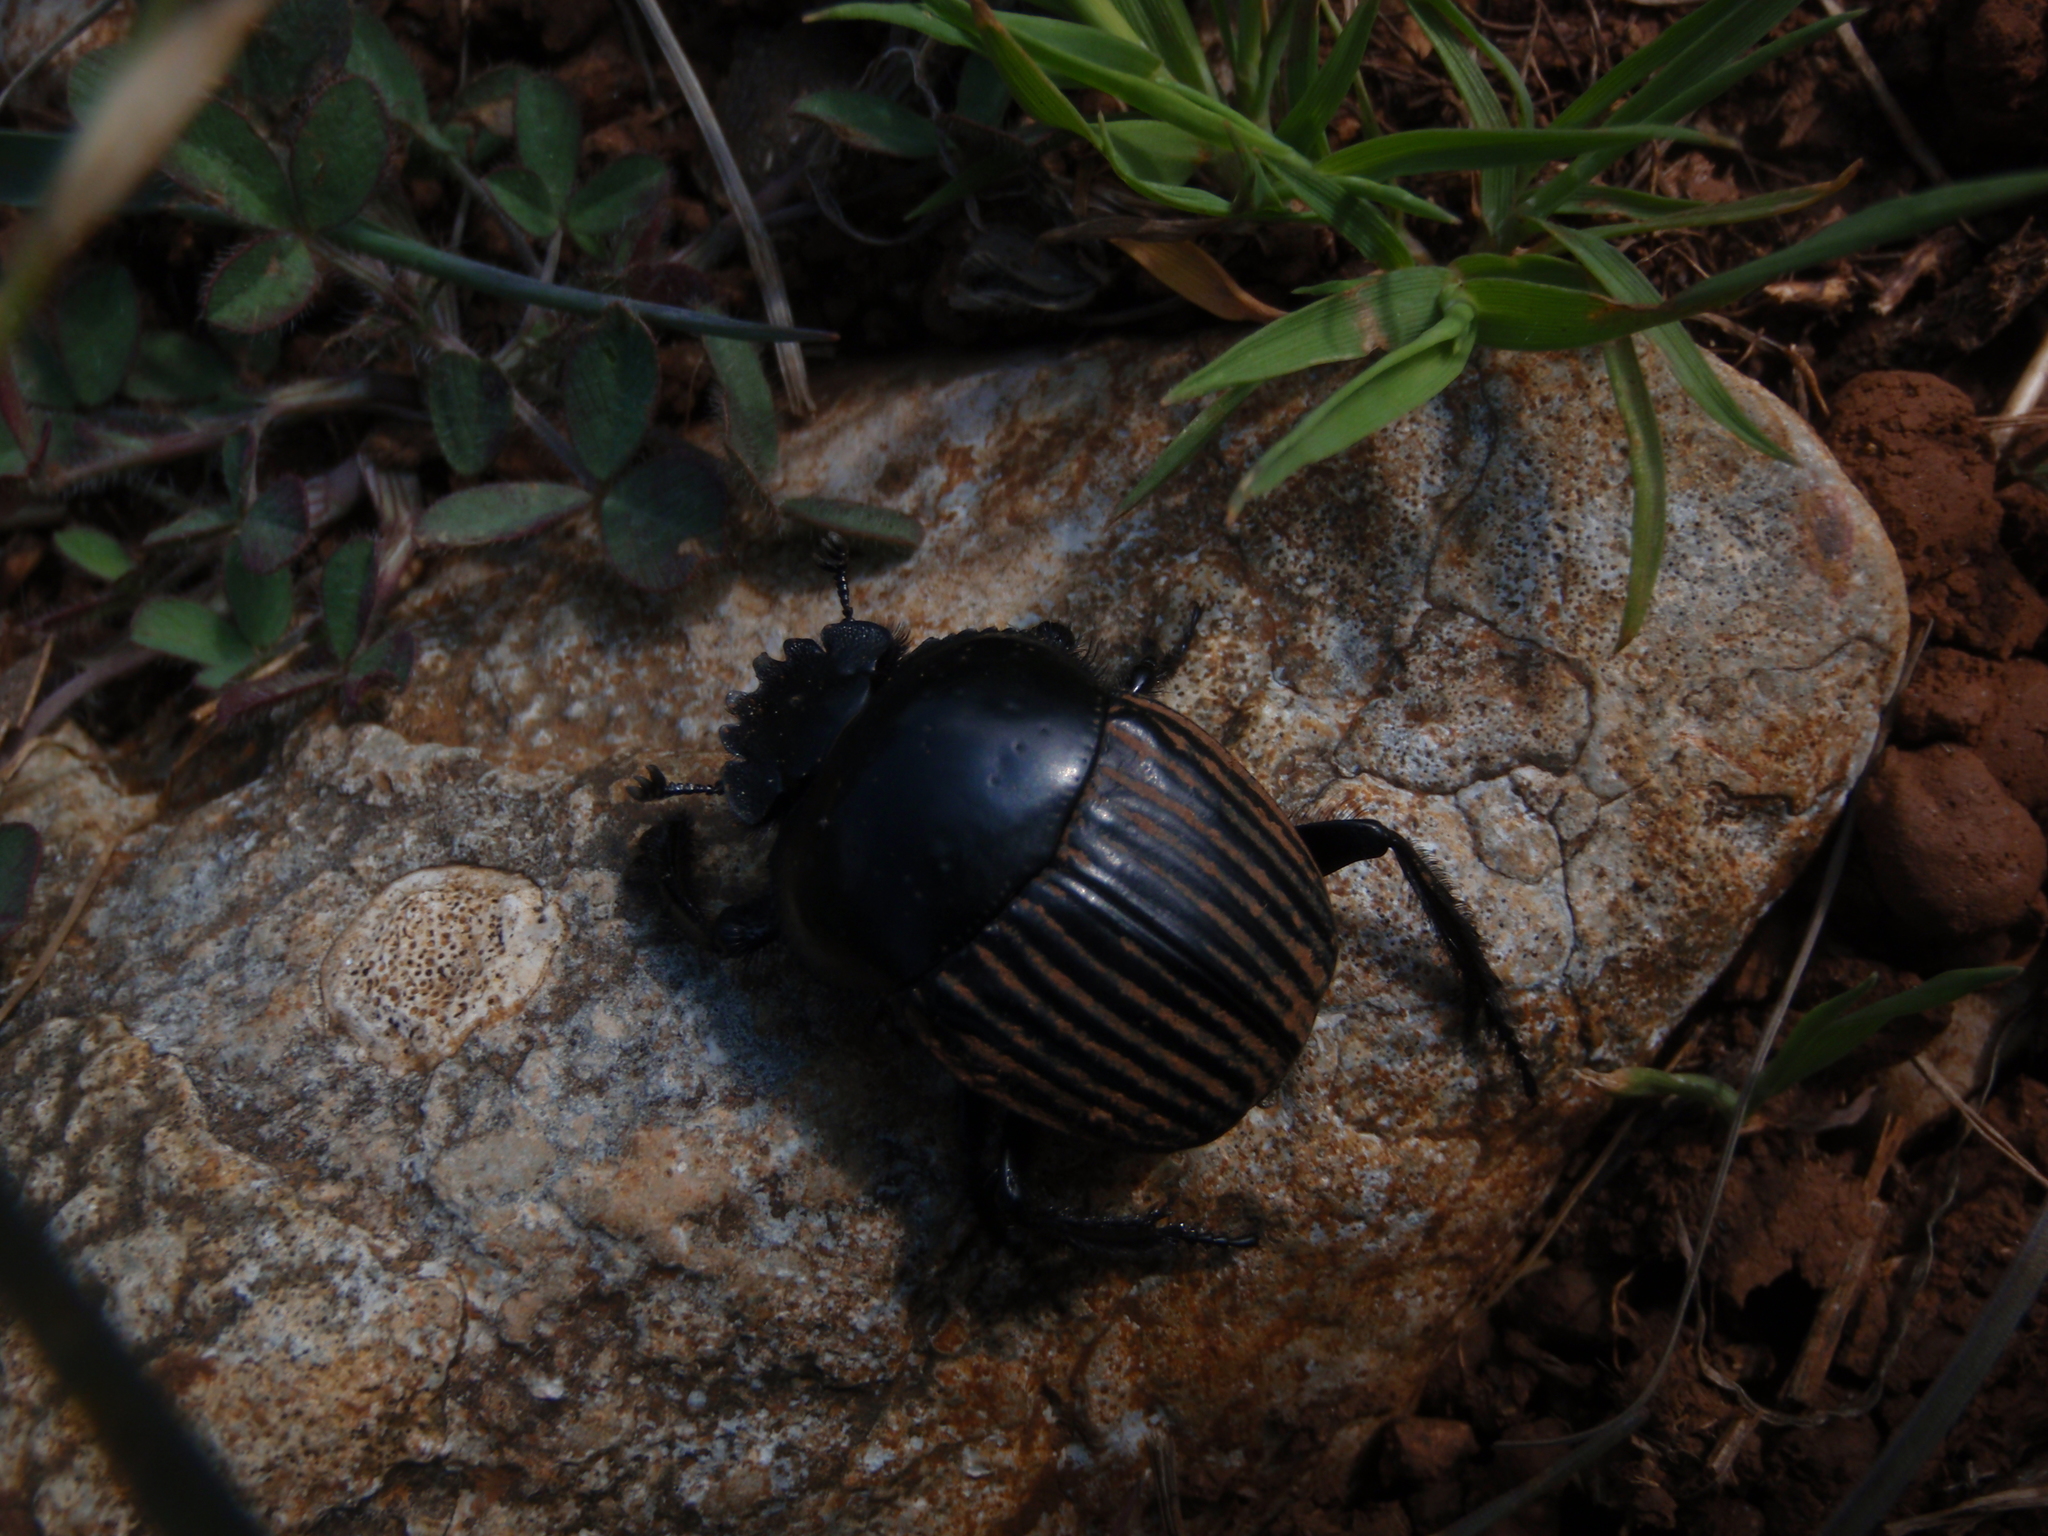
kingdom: Animalia
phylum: Arthropoda
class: Insecta
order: Coleoptera
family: Scarabaeidae
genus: Ateuchetus
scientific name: Ateuchetus laticollis
